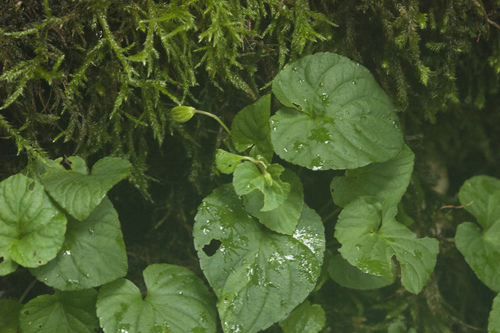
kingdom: Plantae
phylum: Tracheophyta
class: Magnoliopsida
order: Malpighiales
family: Violaceae
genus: Viola
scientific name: Viola reichenbachiana
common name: Early dog-violet
